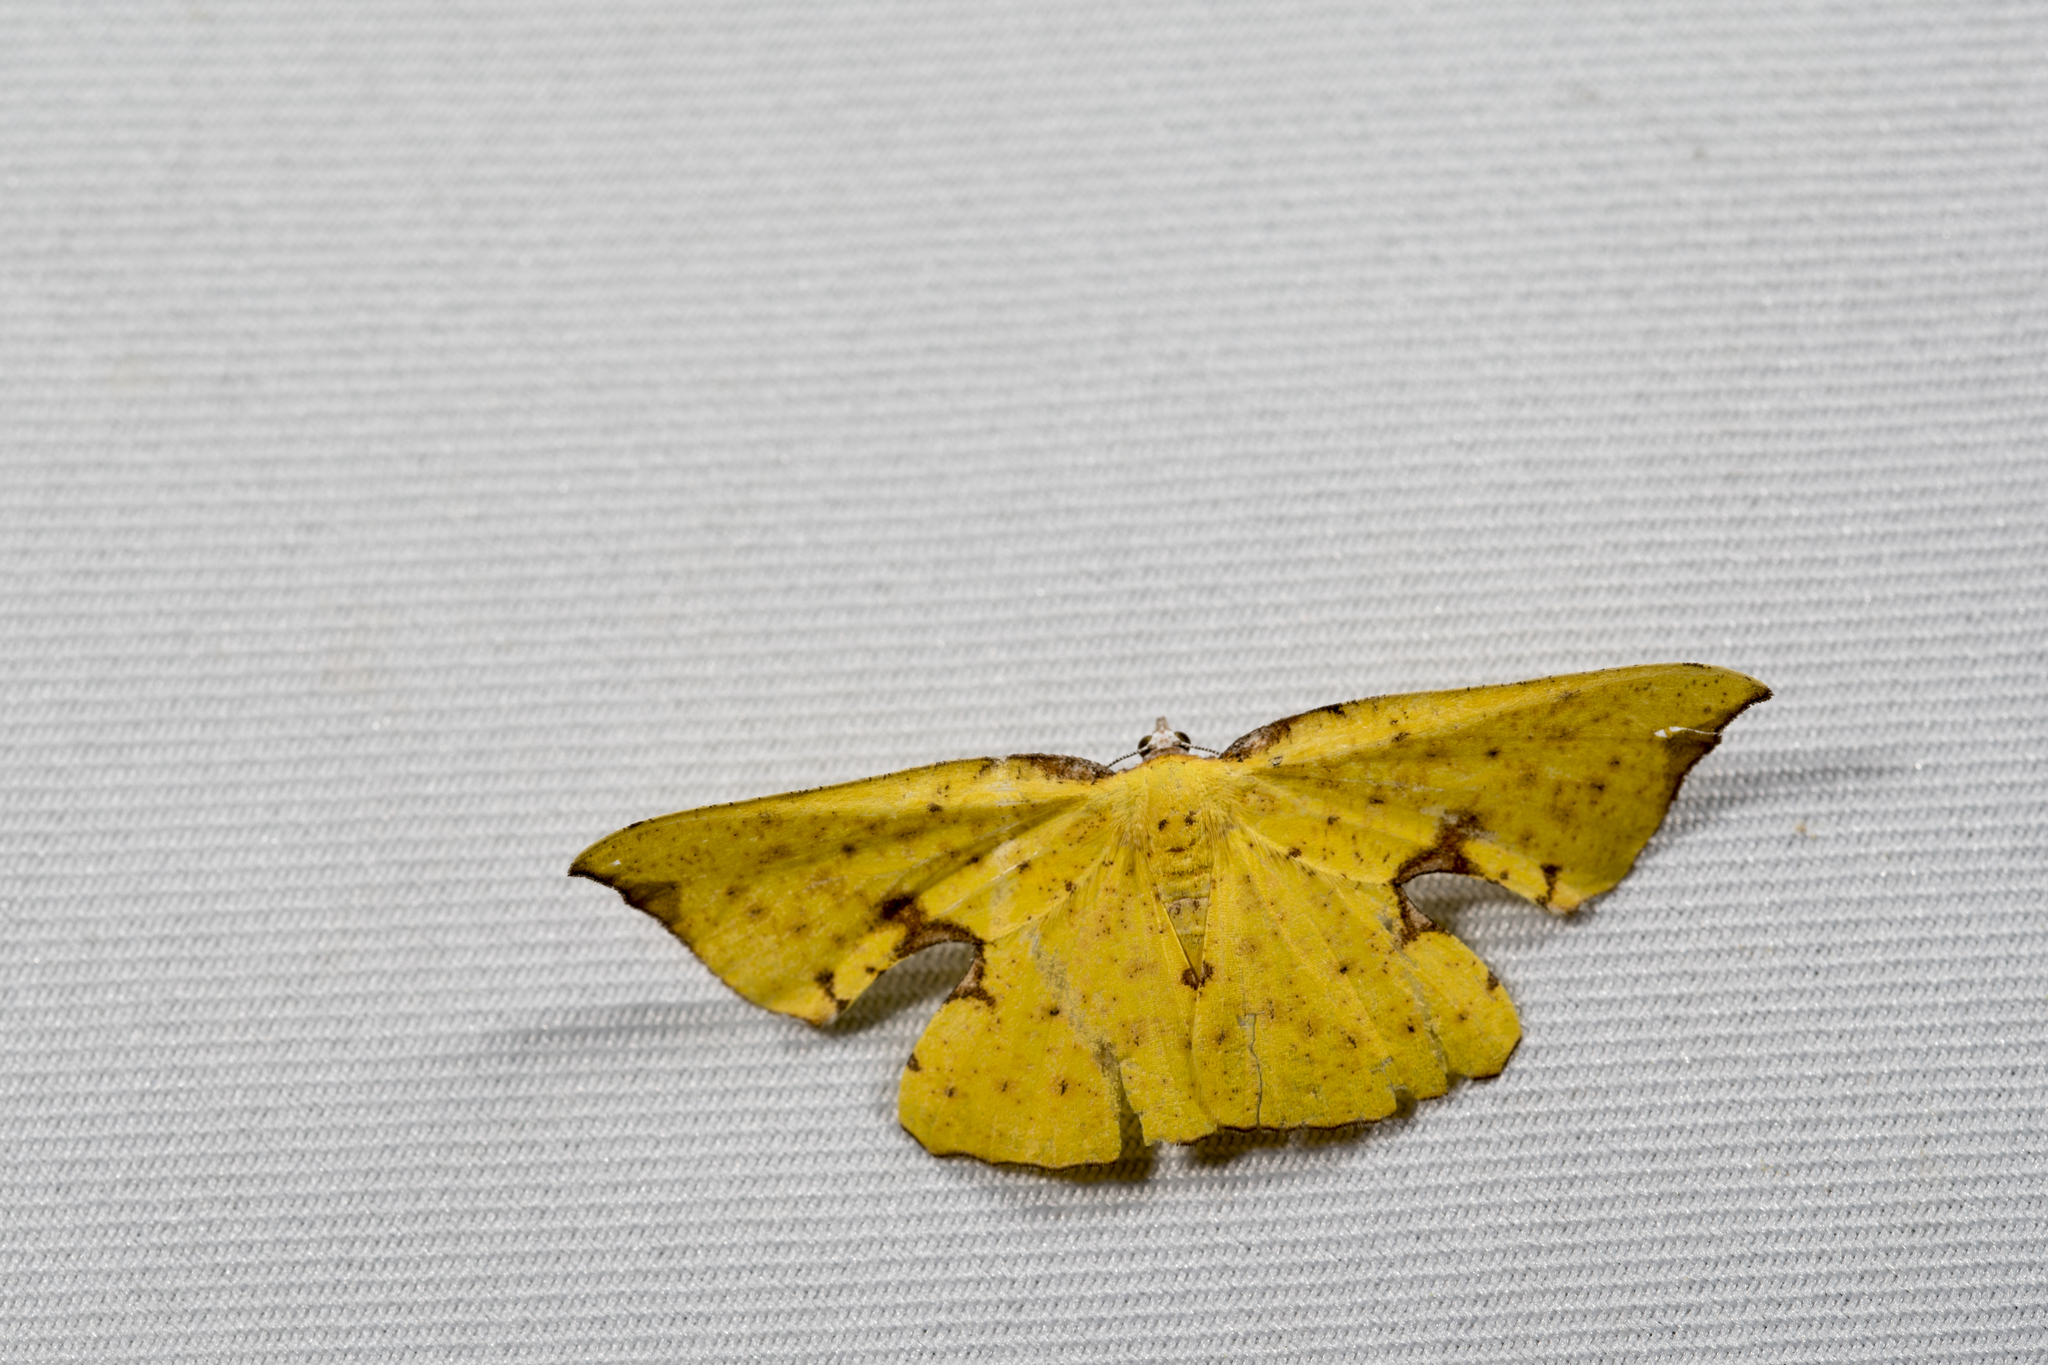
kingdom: Animalia
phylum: Arthropoda
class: Insecta
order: Lepidoptera
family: Geometridae
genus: Corymica
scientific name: Corymica spatiosa
